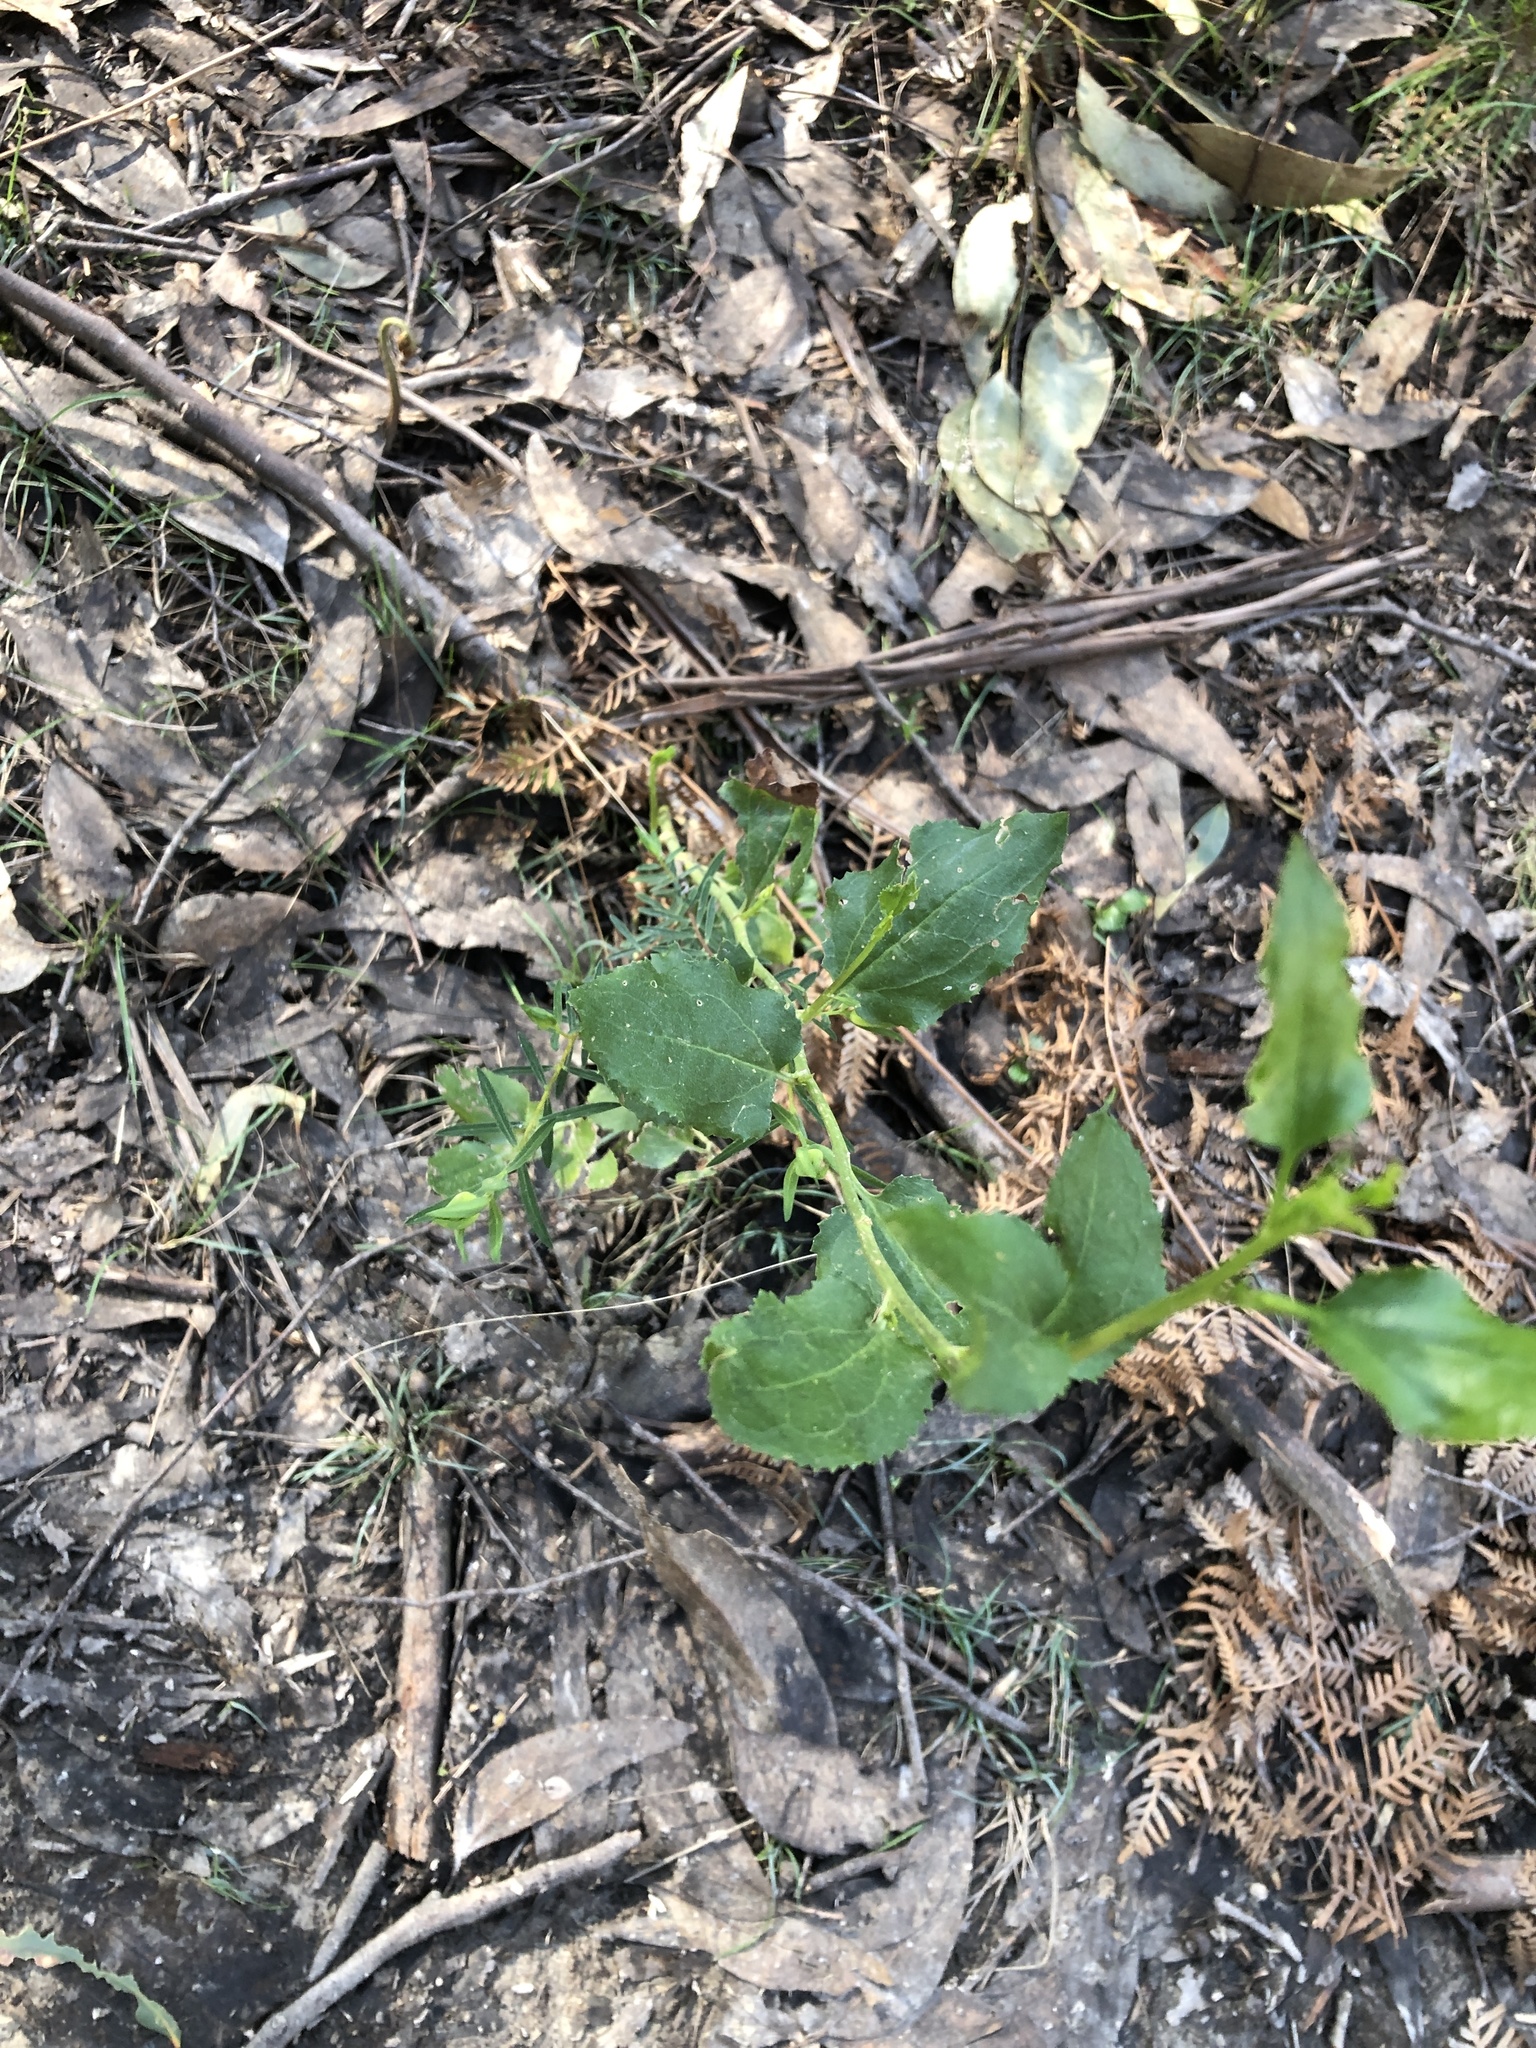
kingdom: Plantae
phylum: Tracheophyta
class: Magnoliopsida
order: Asterales
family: Goodeniaceae
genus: Goodenia
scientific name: Goodenia ovata
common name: Hop goodenia
